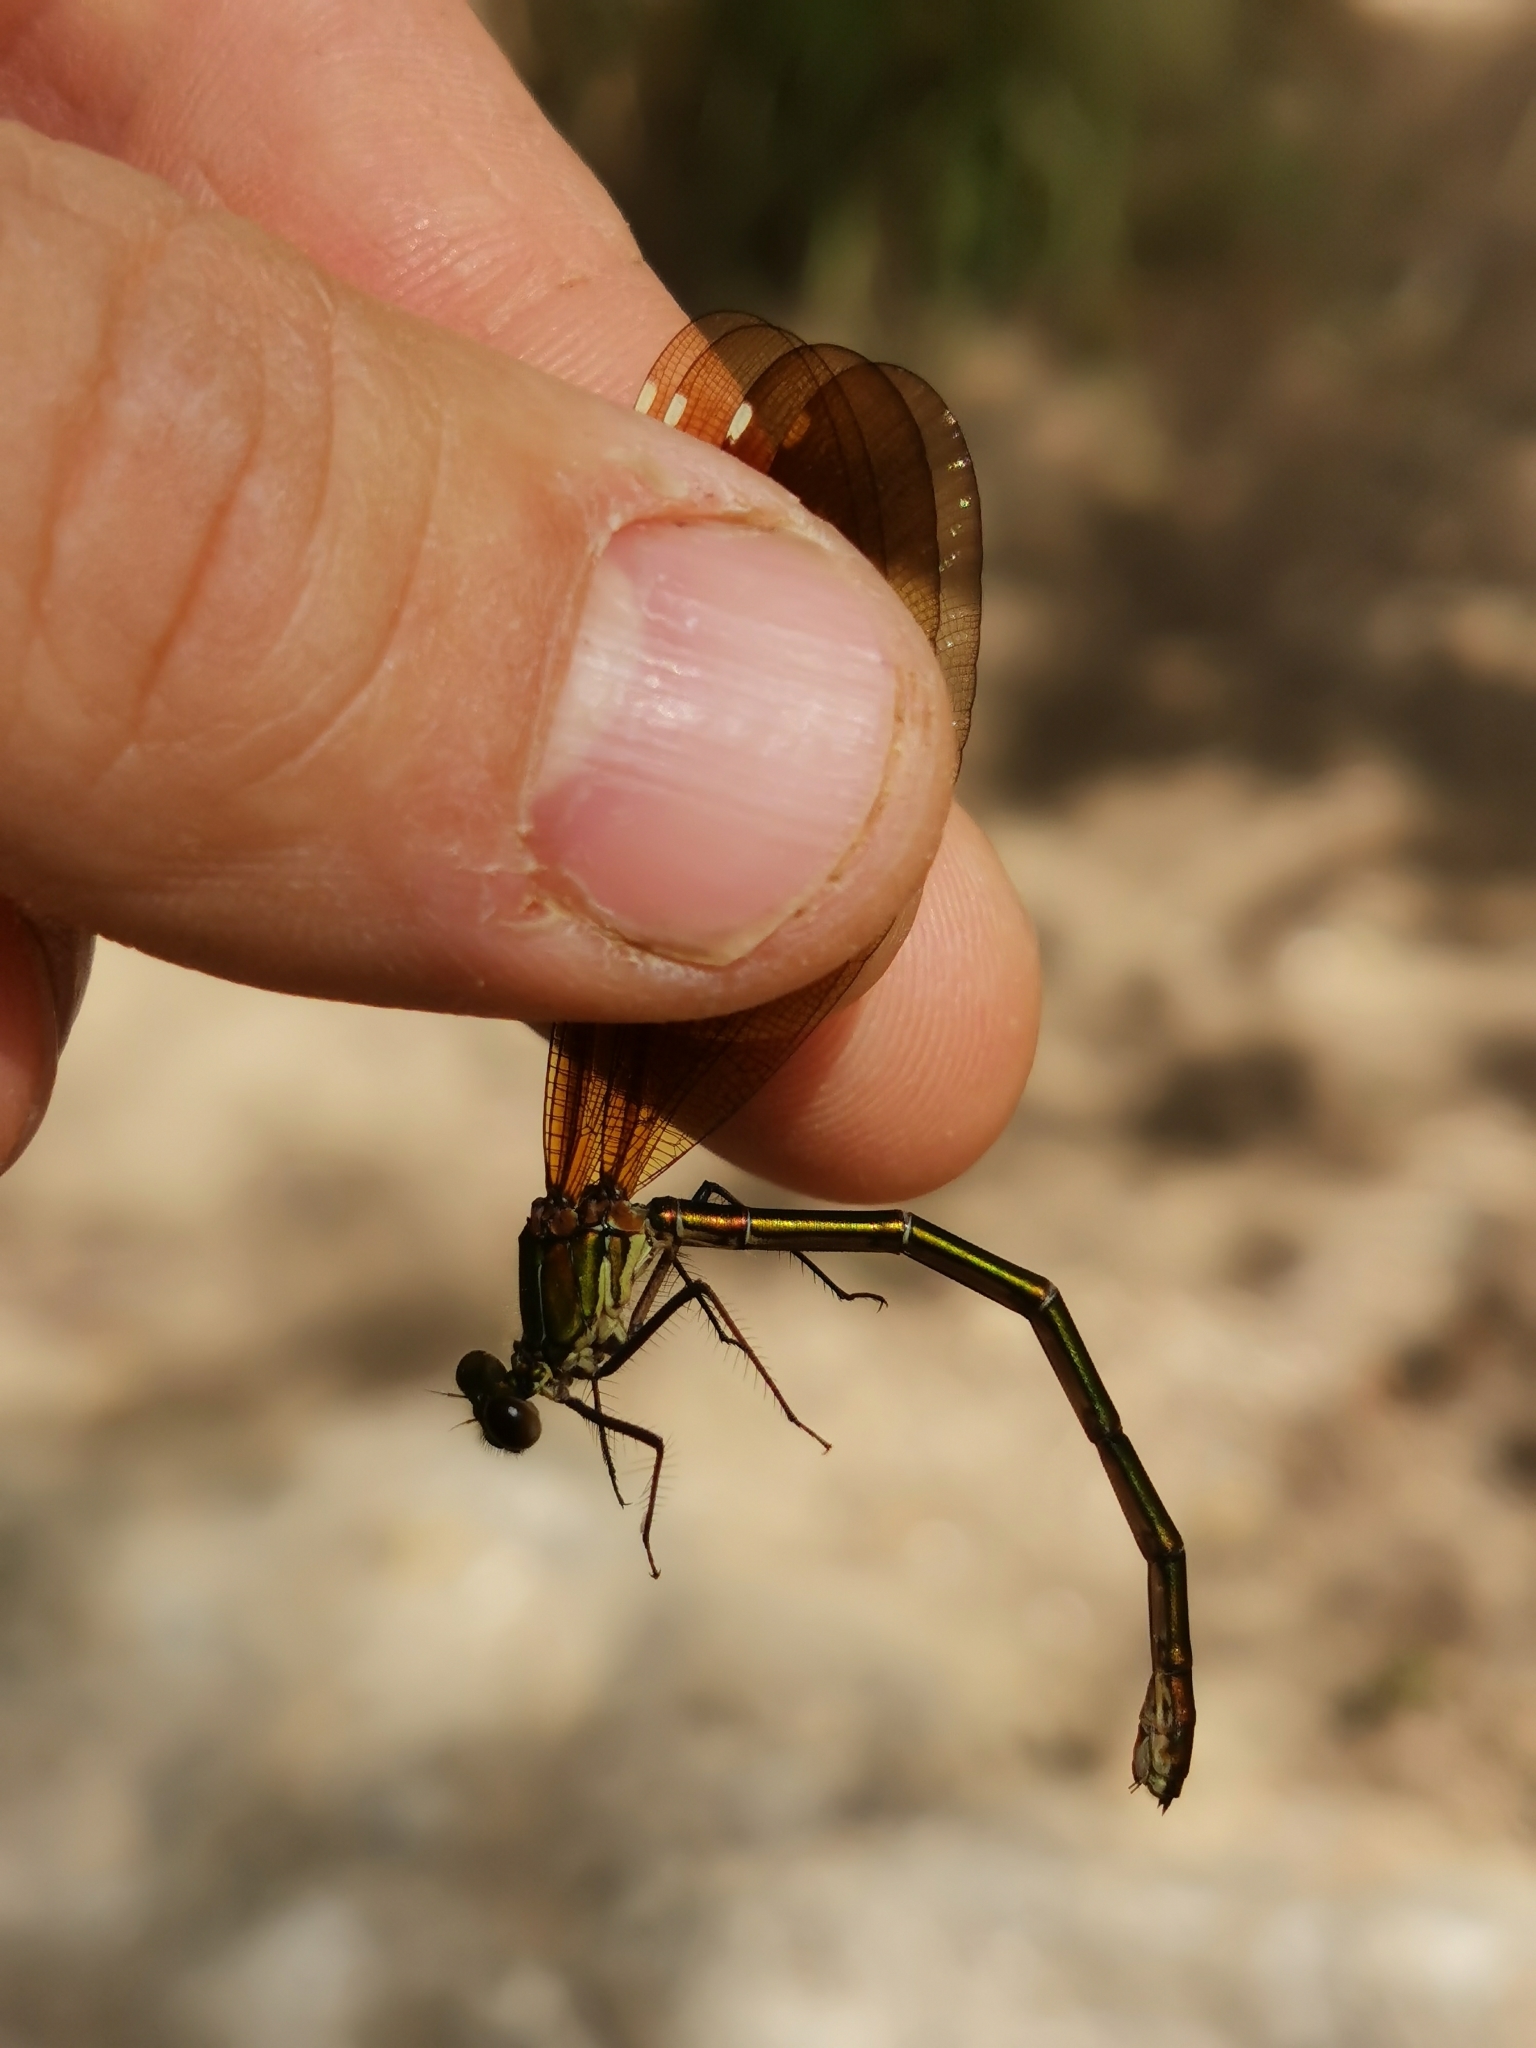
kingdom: Animalia
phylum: Arthropoda
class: Insecta
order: Odonata
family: Calopterygidae
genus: Calopteryx
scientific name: Calopteryx haemorrhoidalis
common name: Copper demoiselle
